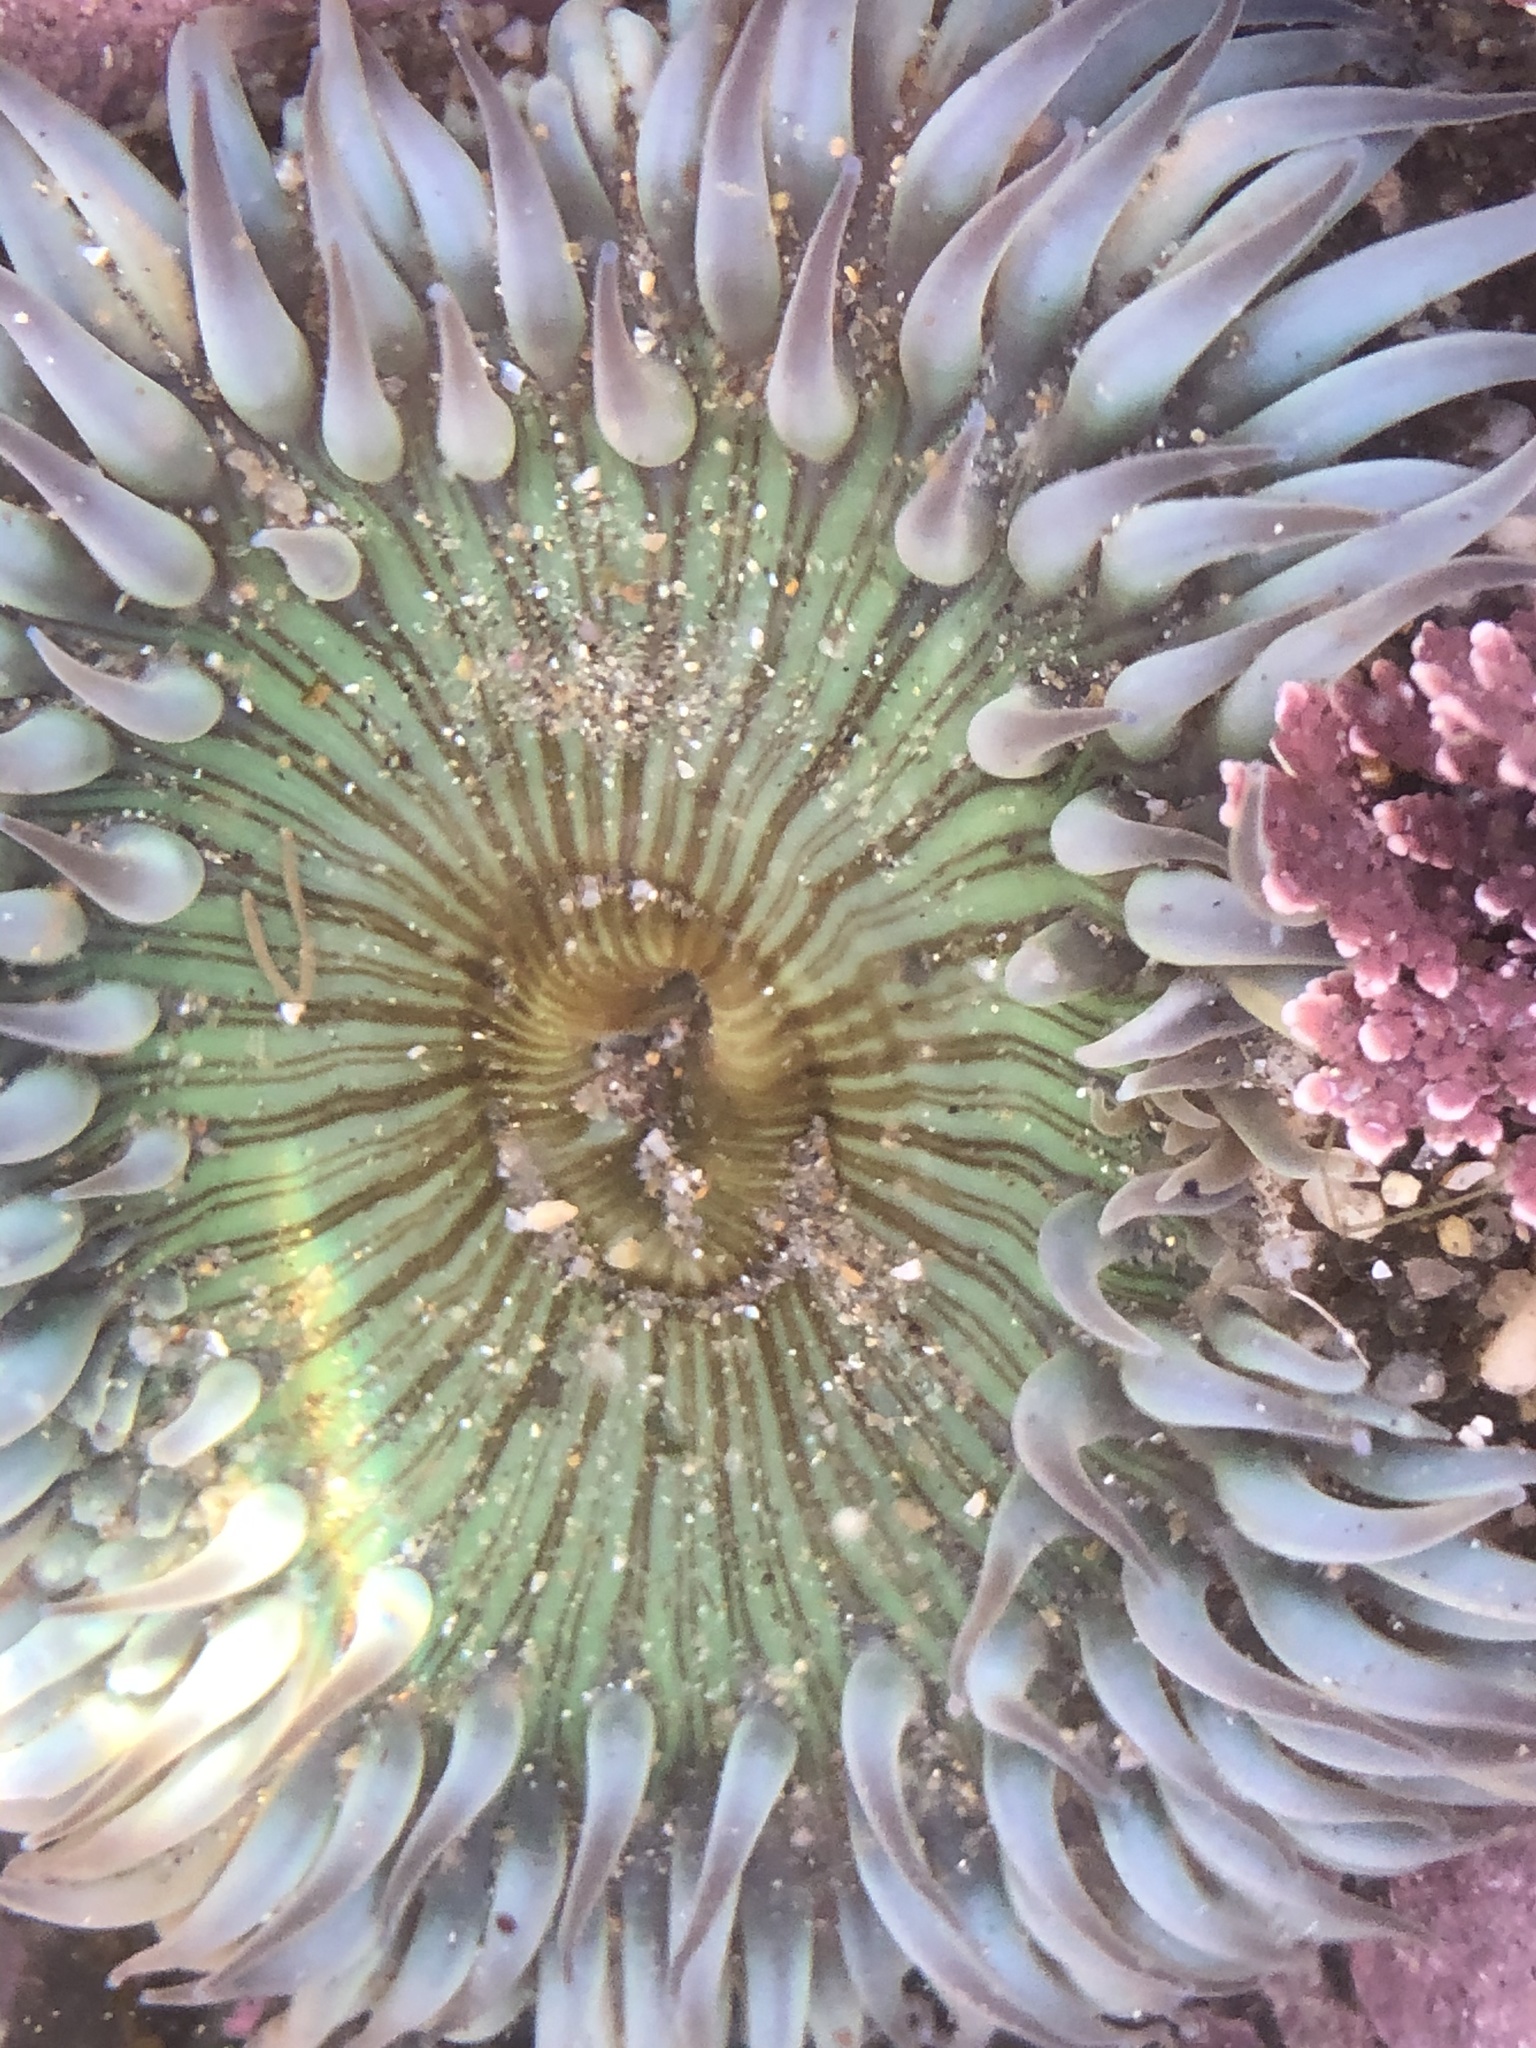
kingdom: Animalia
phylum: Cnidaria
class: Anthozoa
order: Actiniaria
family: Actiniidae
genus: Anthopleura
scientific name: Anthopleura sola
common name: Sun anemone
